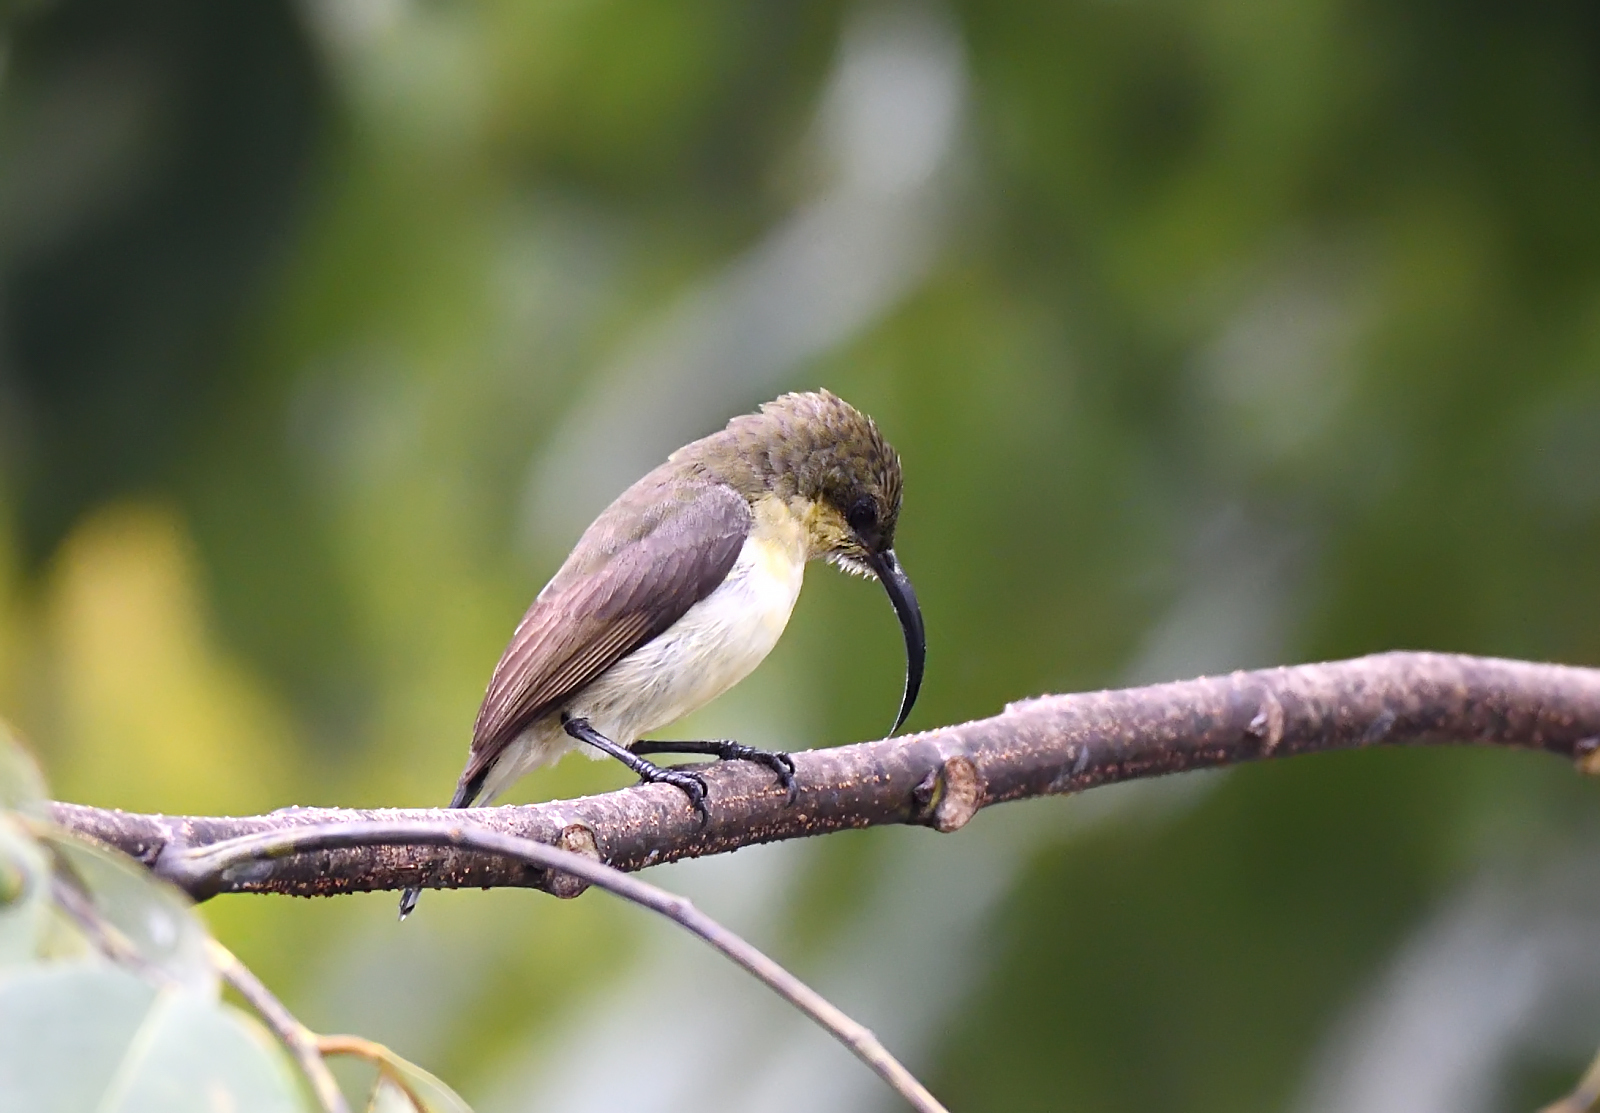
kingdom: Animalia
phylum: Chordata
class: Aves
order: Passeriformes
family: Nectariniidae
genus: Cinnyris
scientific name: Cinnyris lotenius
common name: Loten's sunbird
